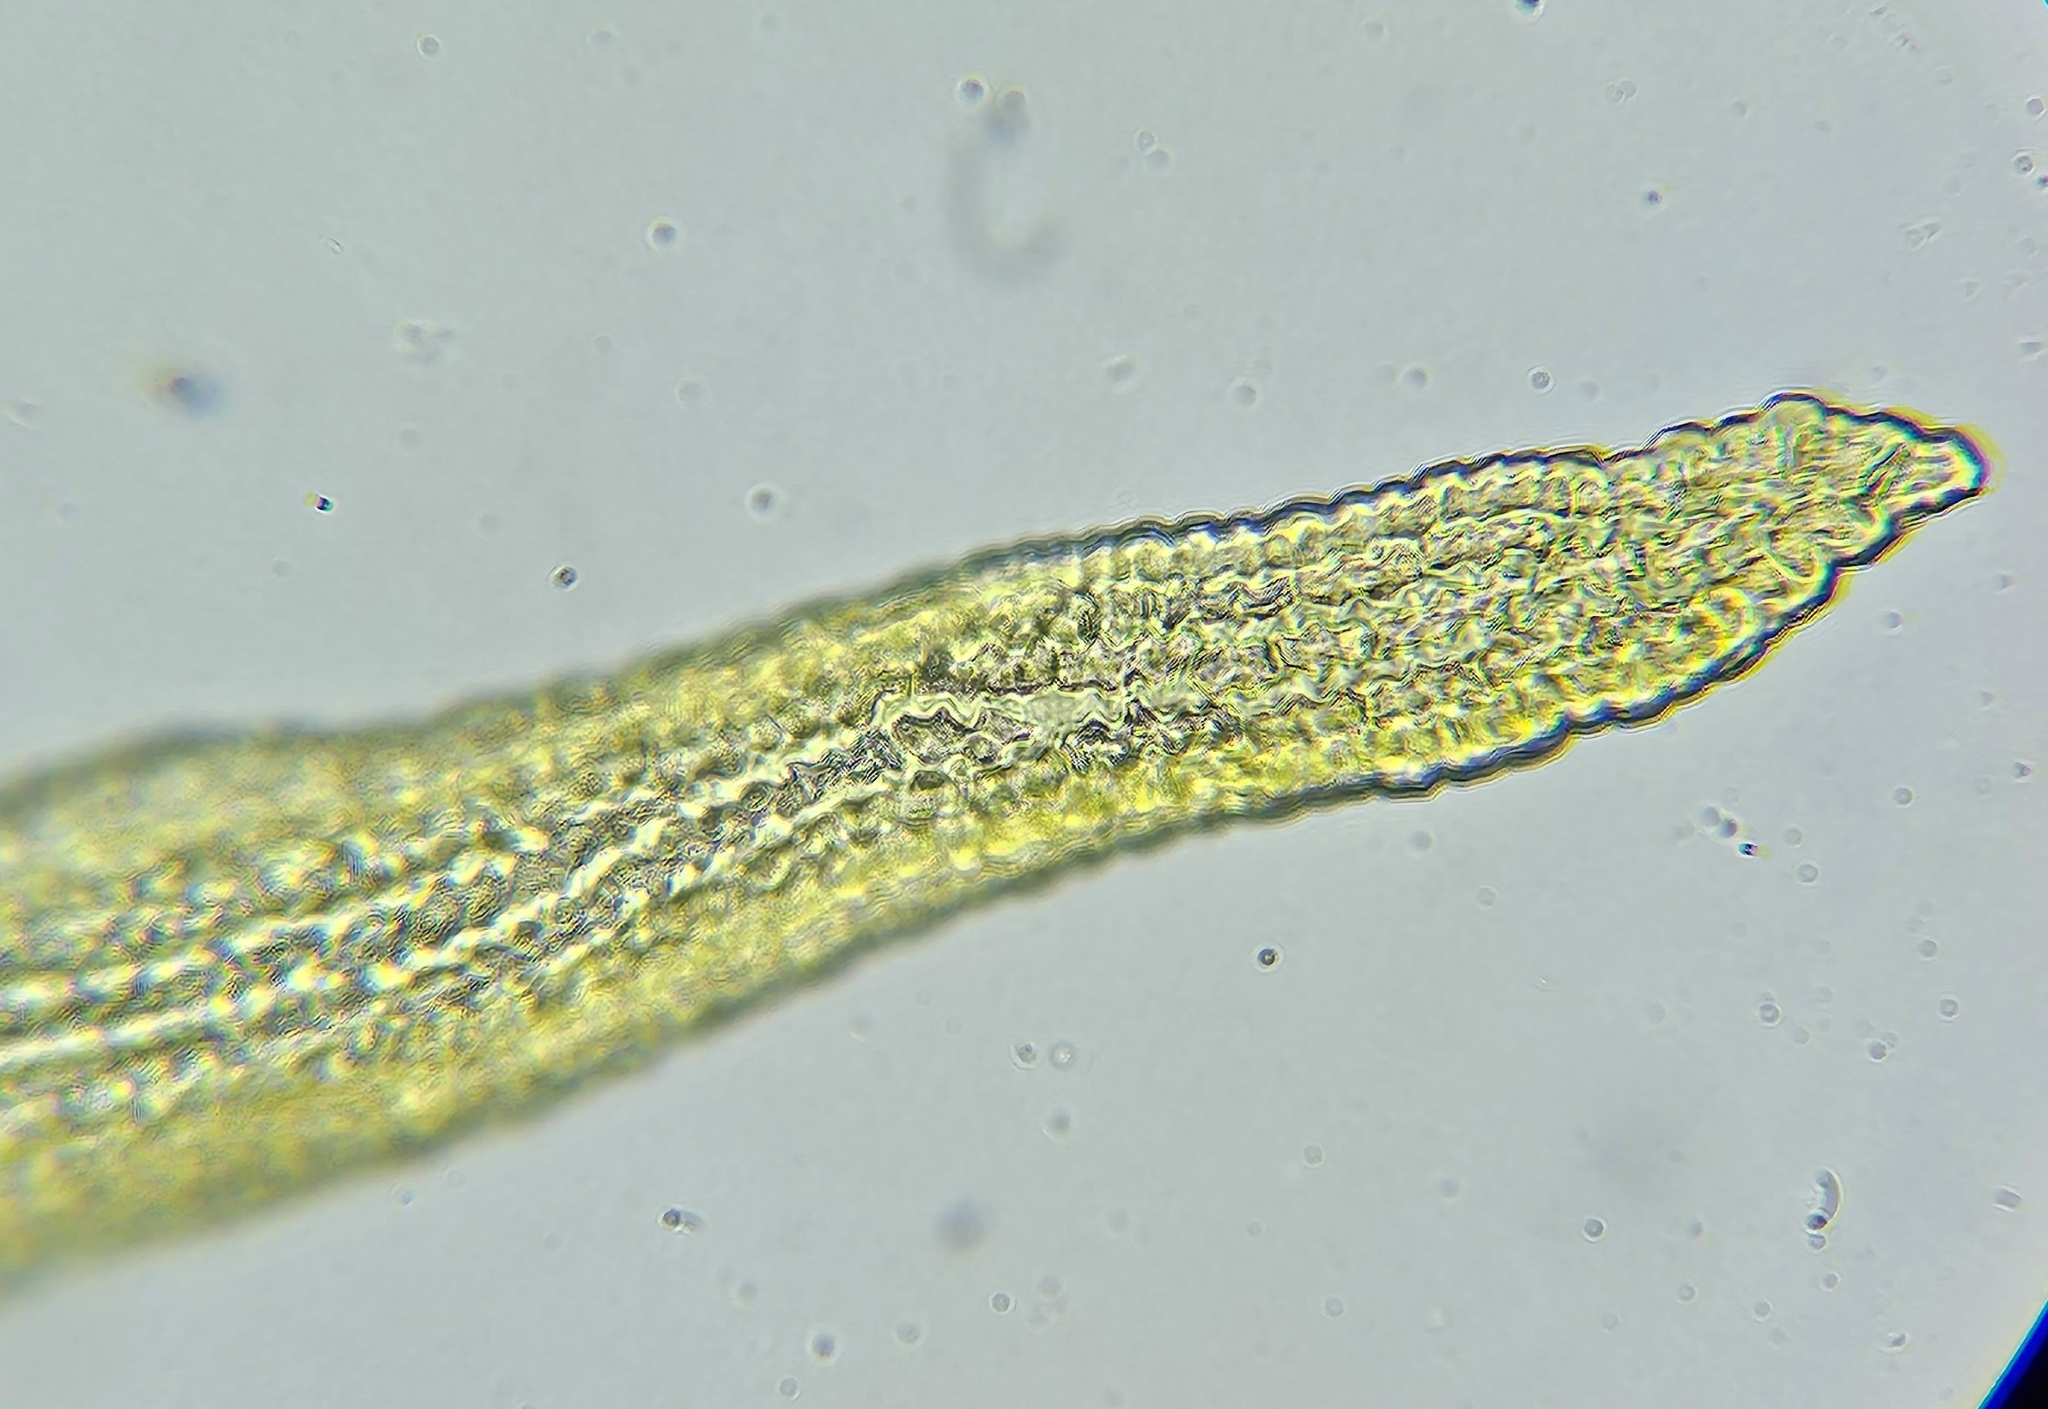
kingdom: Plantae
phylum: Bryophyta
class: Bryopsida
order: Grimmiales
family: Grimmiaceae
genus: Dilutineuron
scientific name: Dilutineuron fasciculare
